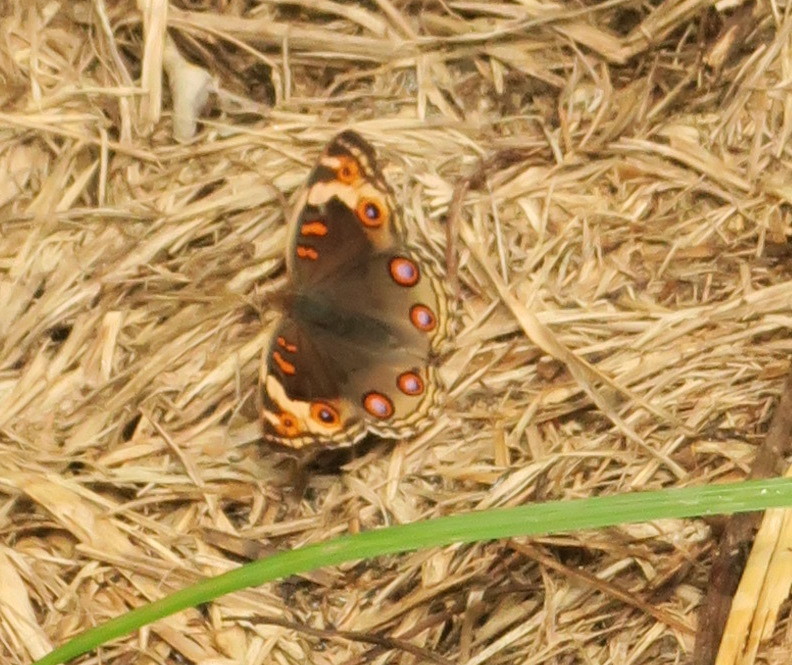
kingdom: Animalia
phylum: Arthropoda
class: Insecta
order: Lepidoptera
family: Nymphalidae
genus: Junonia
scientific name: Junonia orithya
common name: Blue pansy
